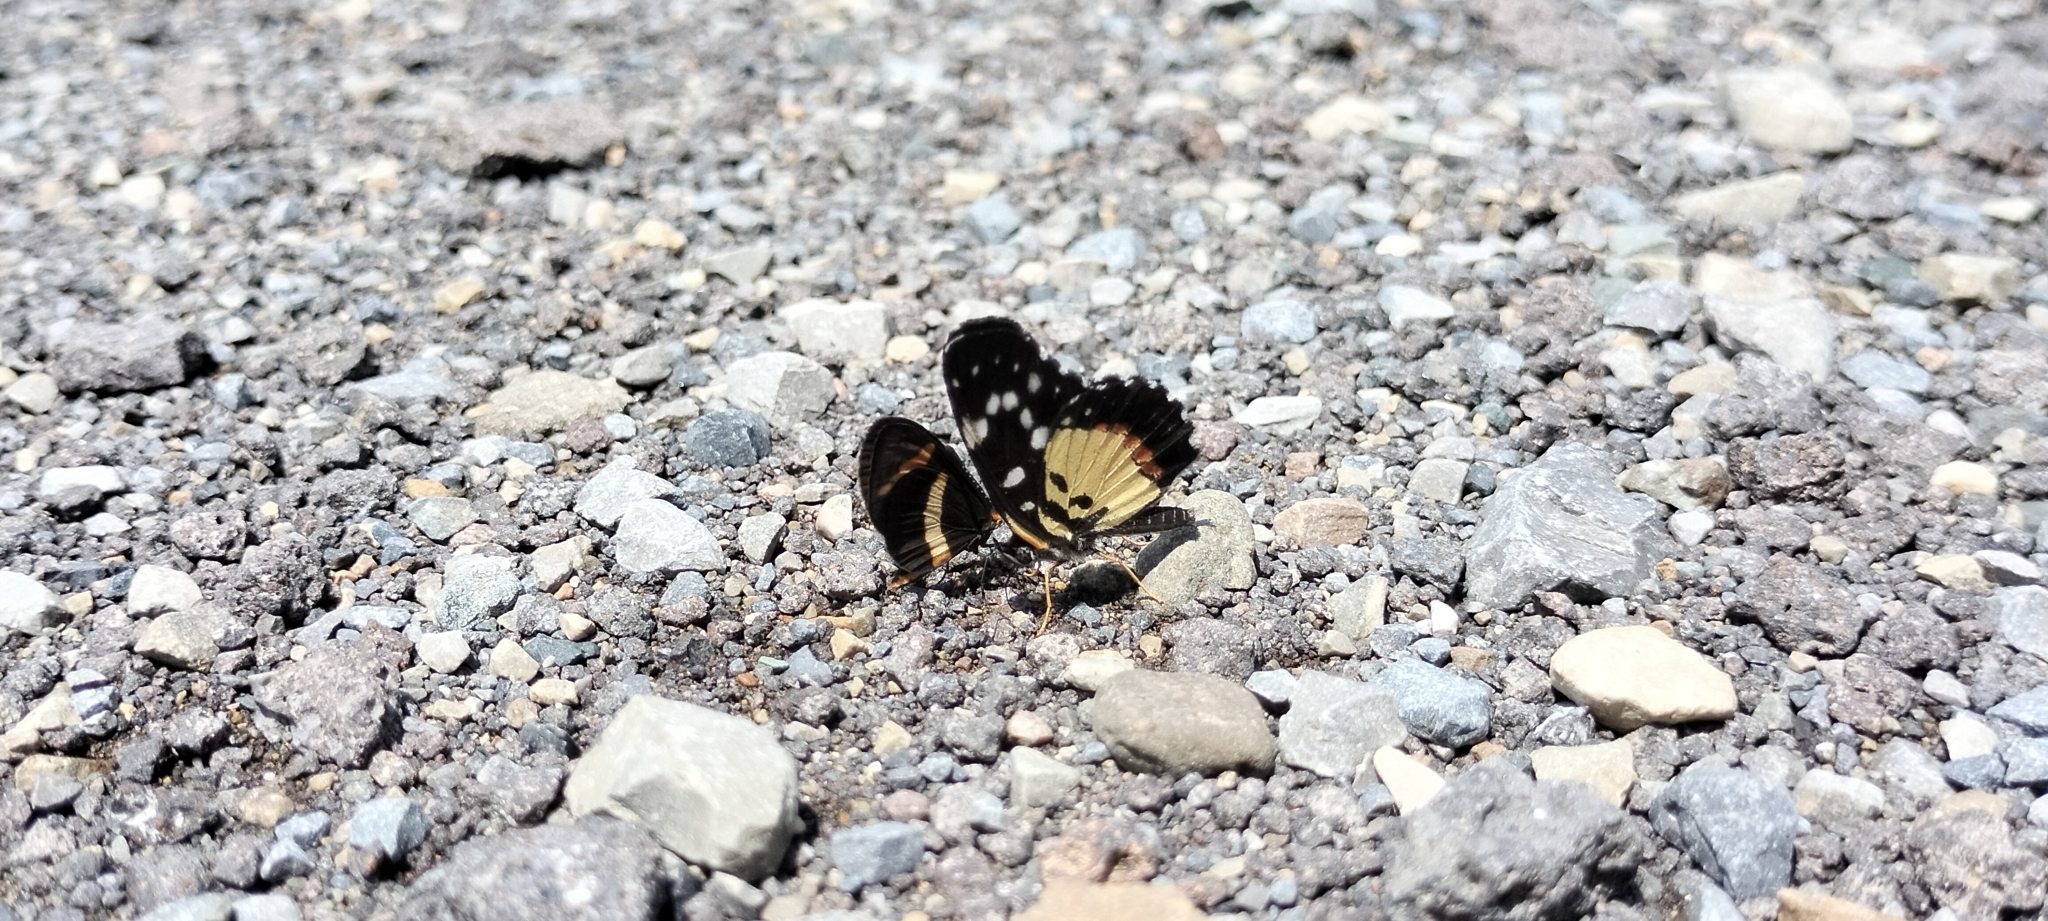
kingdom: Animalia
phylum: Arthropoda
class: Insecta
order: Lepidoptera
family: Nymphalidae
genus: Microtia
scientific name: Microtia elva
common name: Elf
